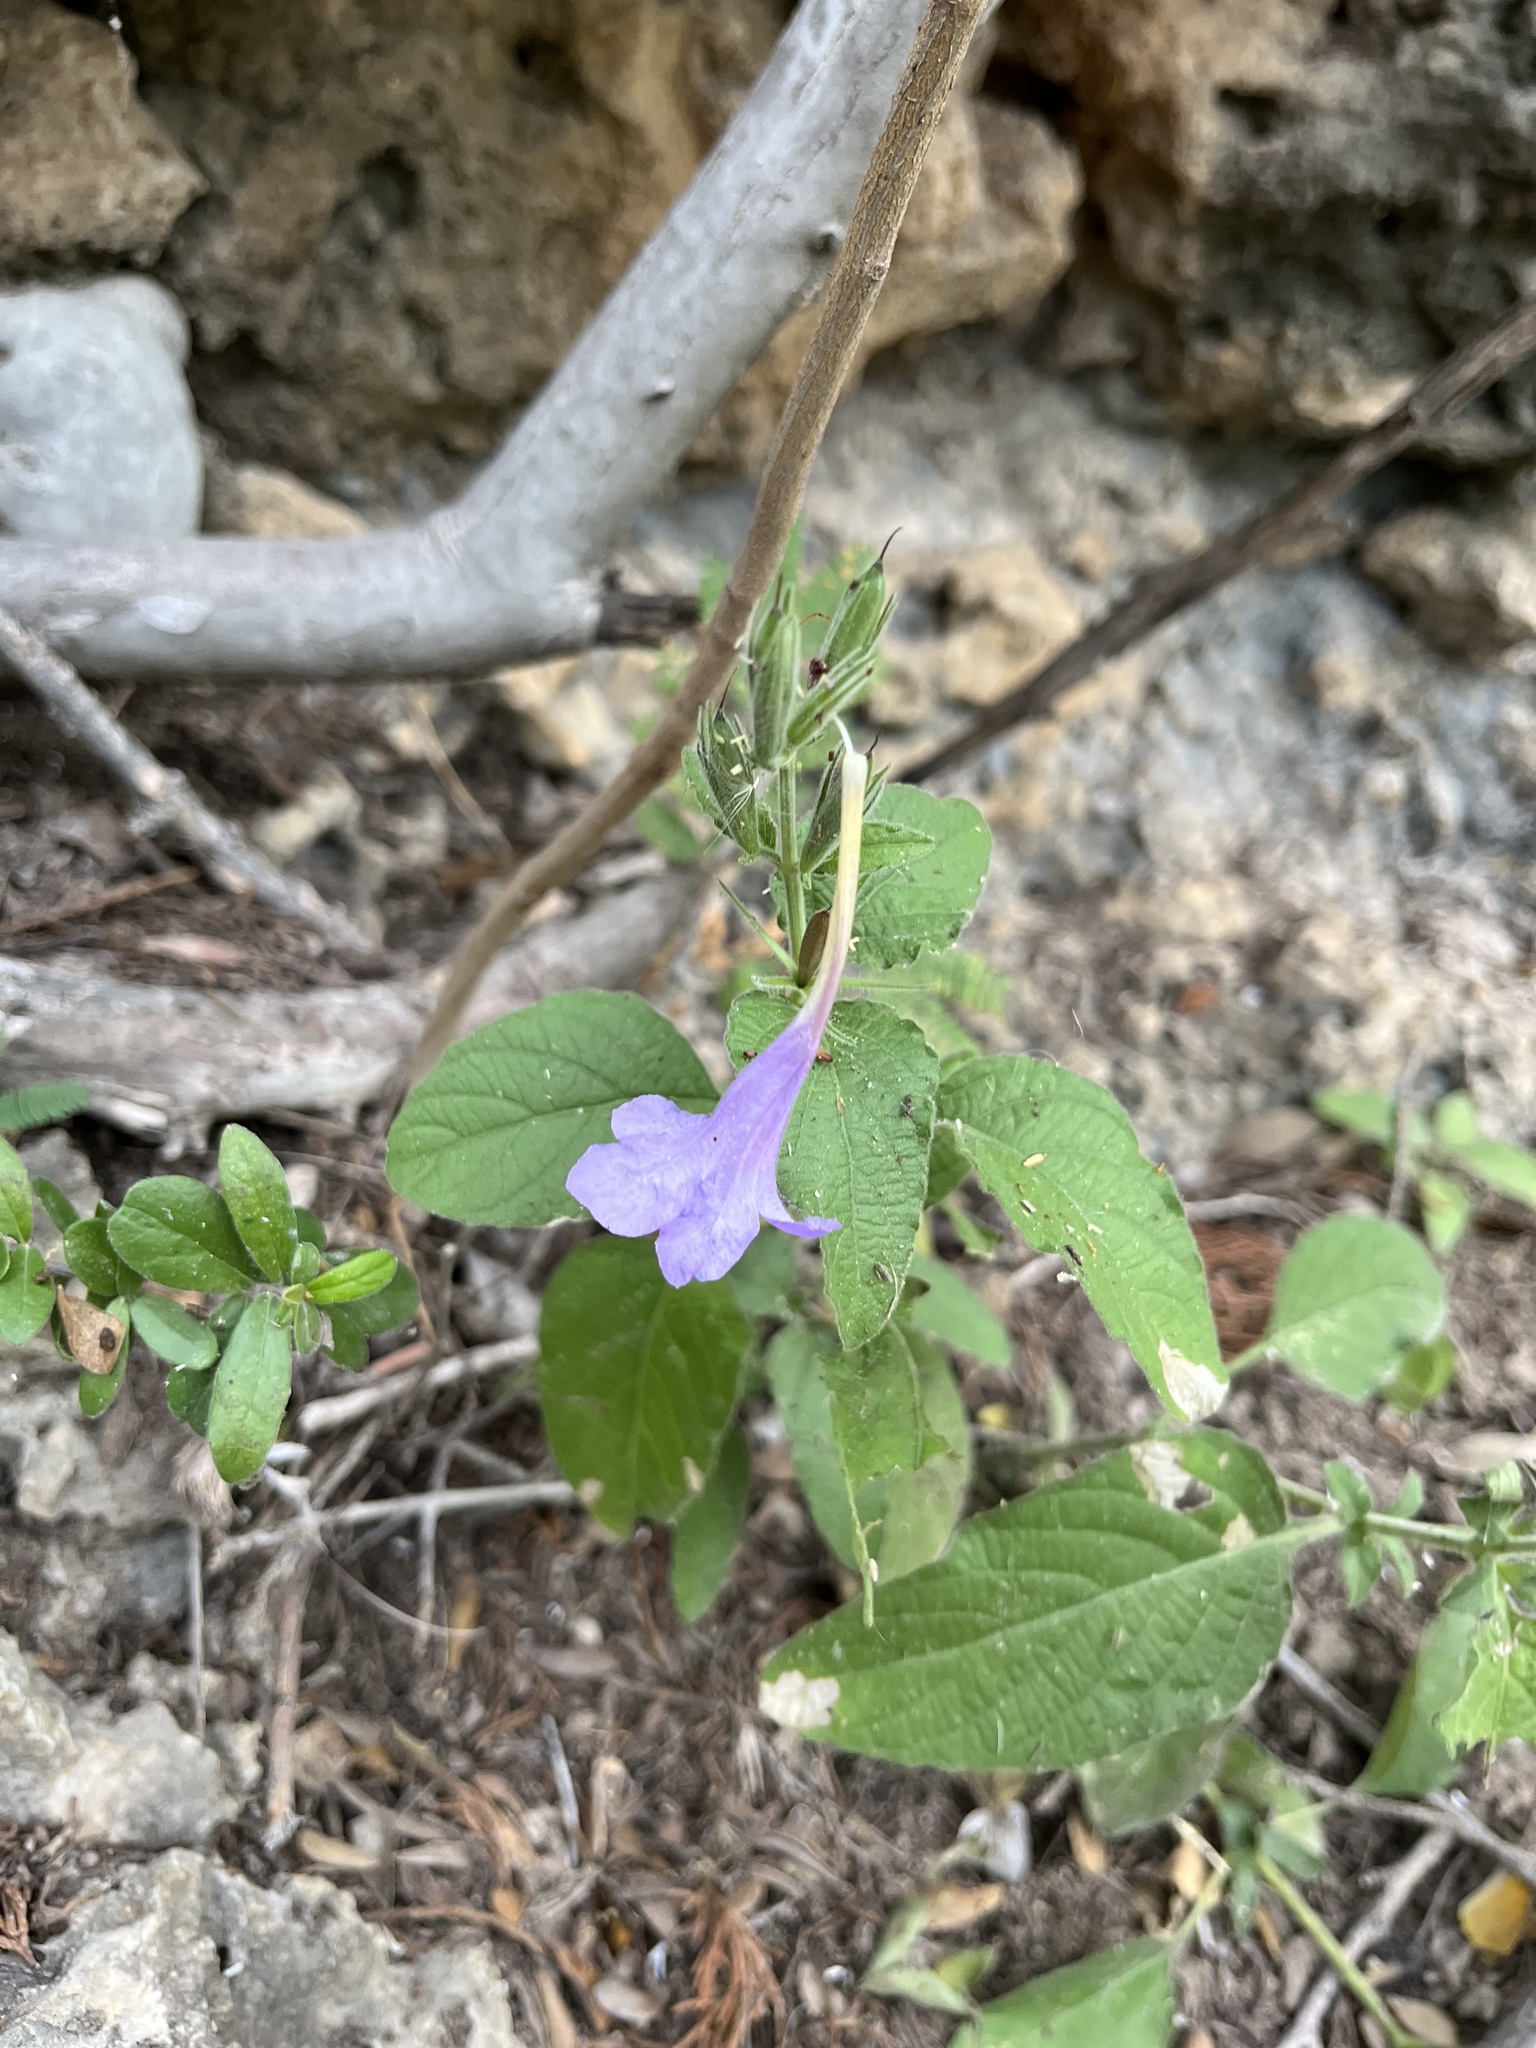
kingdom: Plantae
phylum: Tracheophyta
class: Magnoliopsida
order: Lamiales
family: Acanthaceae
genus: Ruellia
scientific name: Ruellia ciliatiflora
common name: Hairyflower wild petunia
